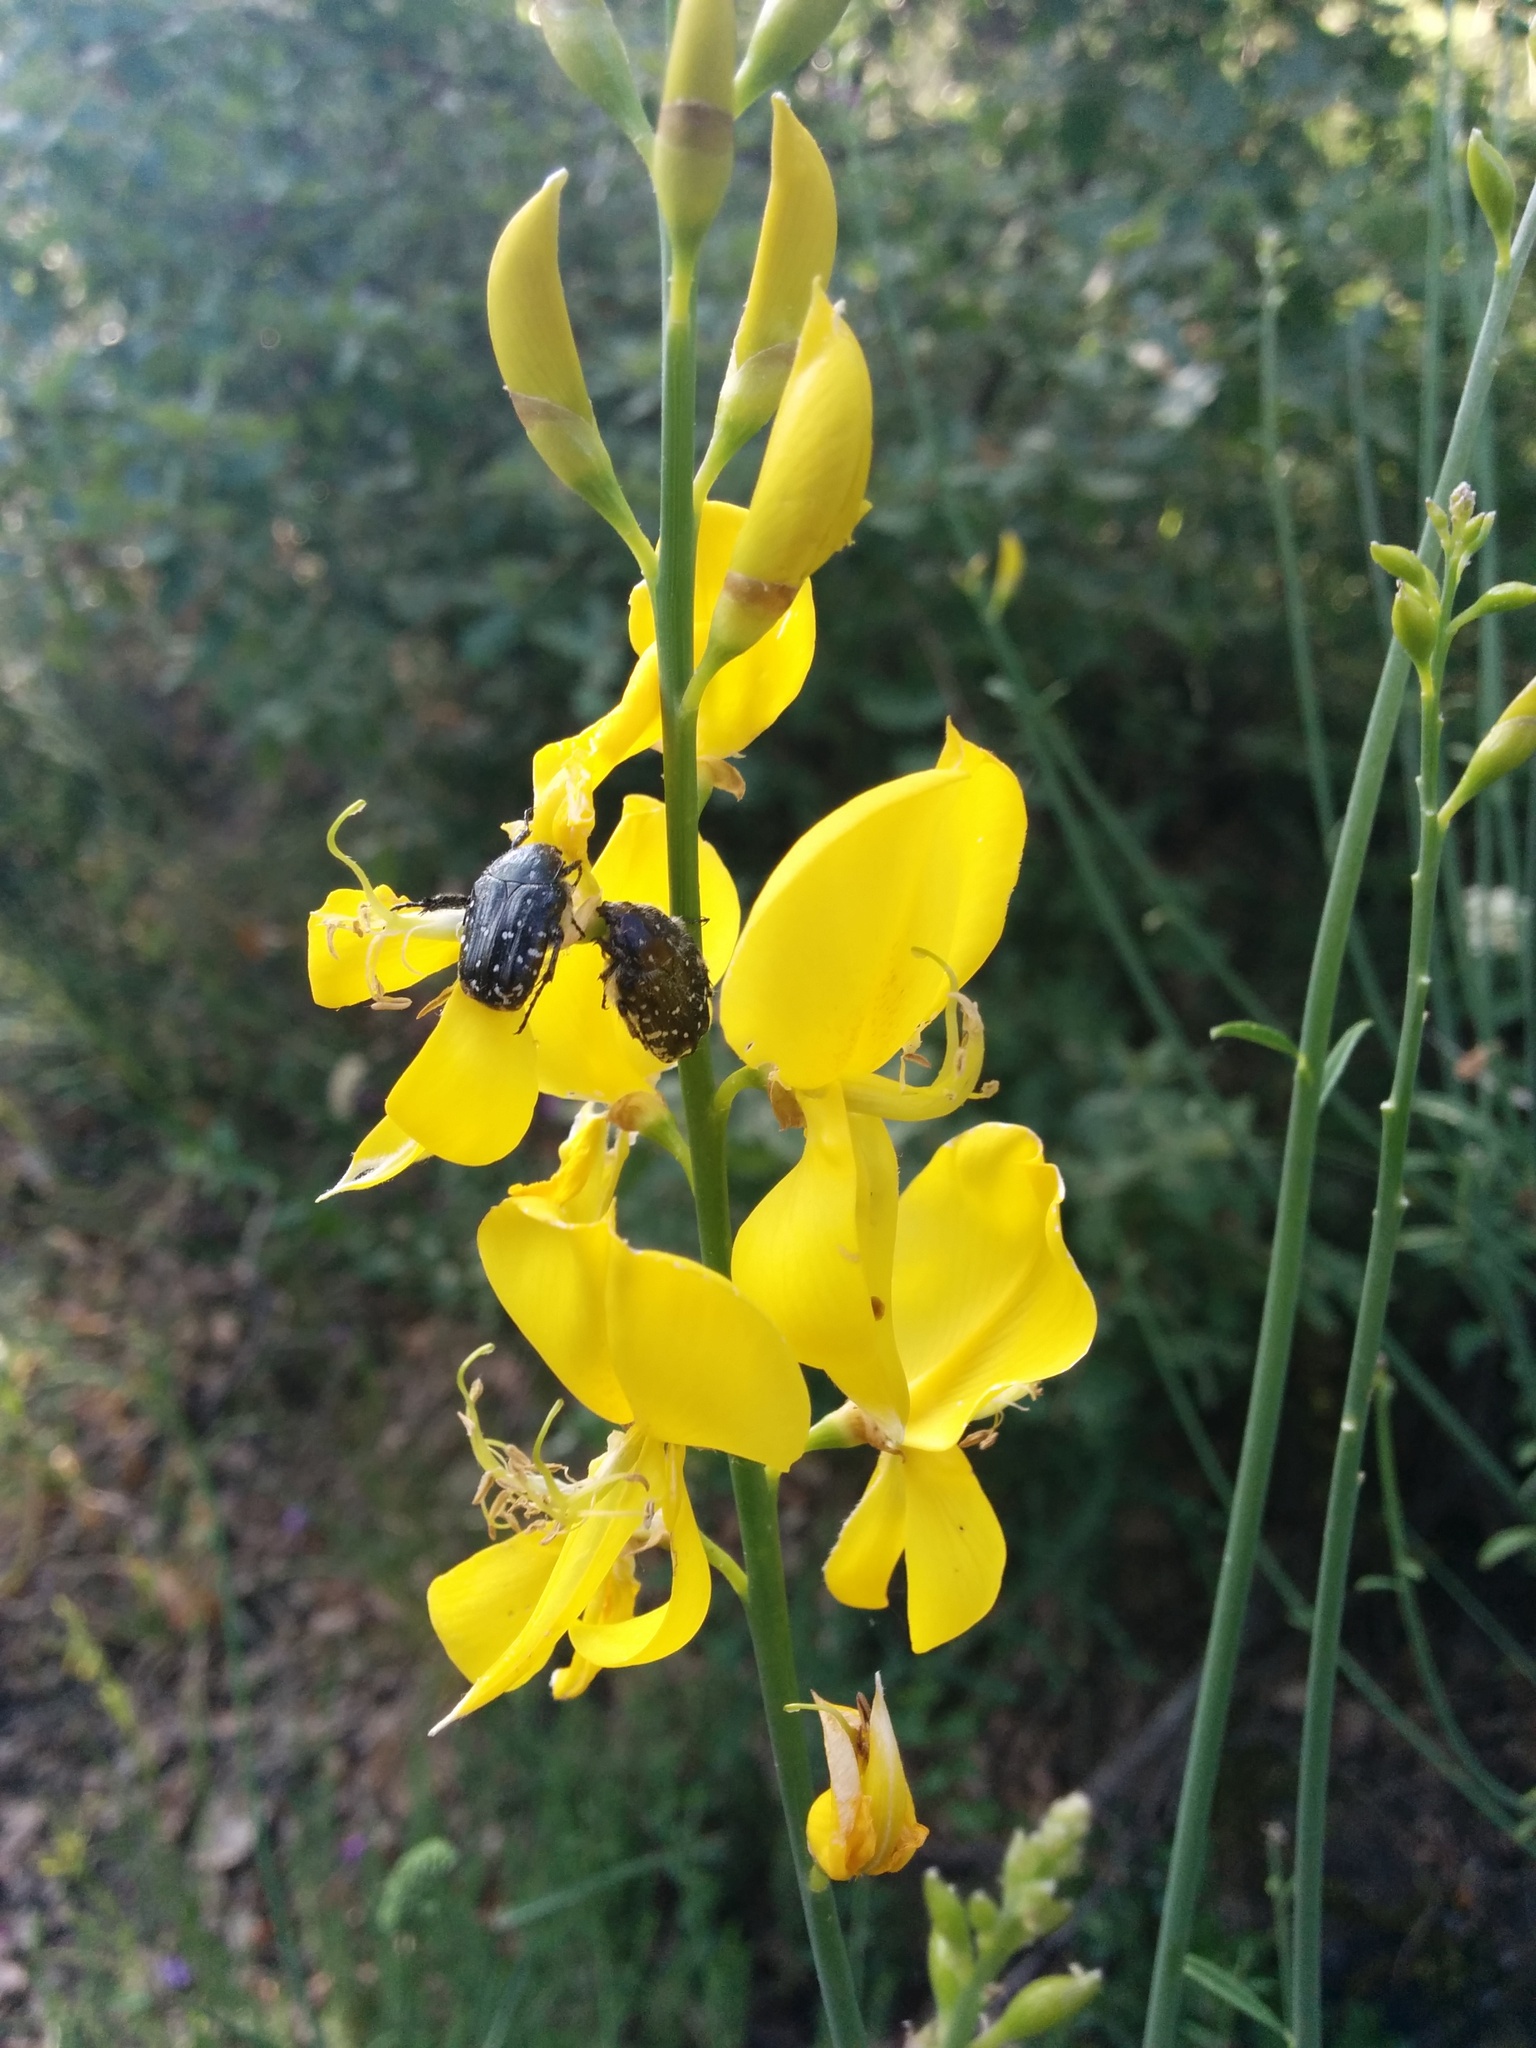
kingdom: Animalia
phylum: Arthropoda
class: Insecta
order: Coleoptera
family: Scarabaeidae
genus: Oxythyrea
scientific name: Oxythyrea funesta
